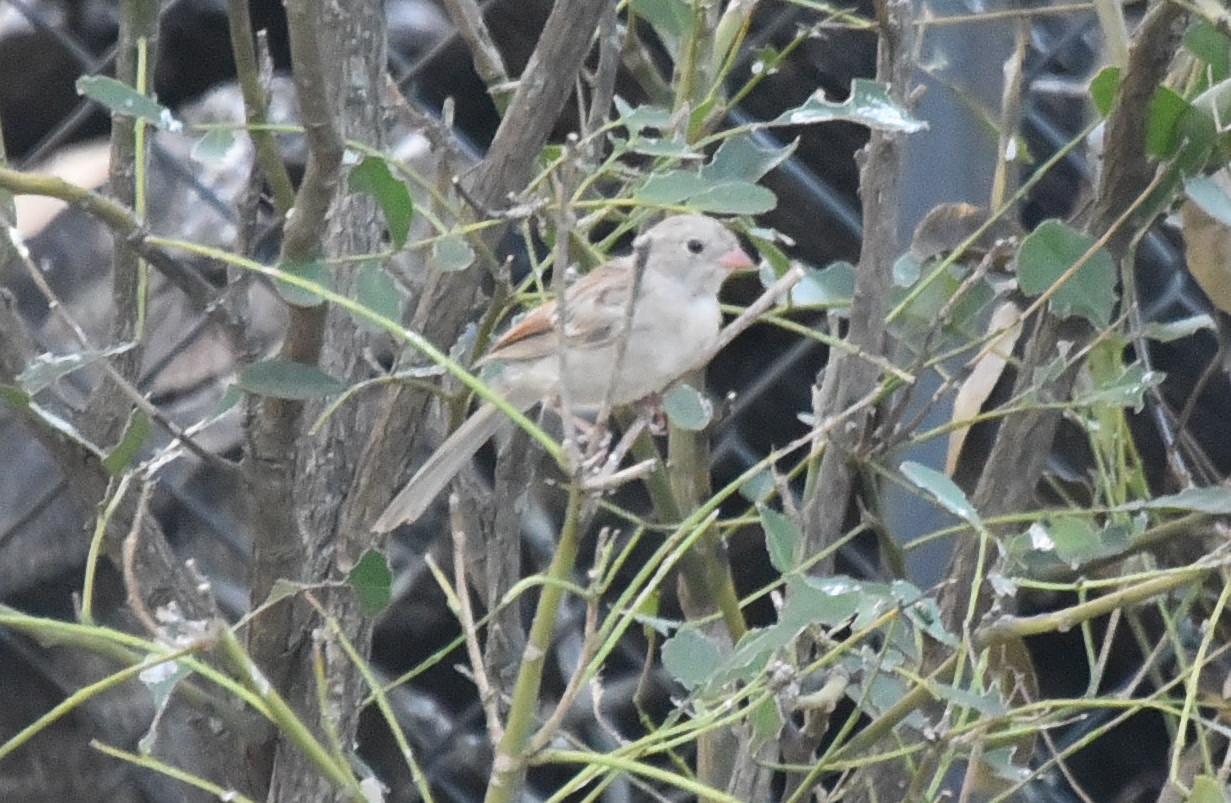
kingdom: Animalia
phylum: Chordata
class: Aves
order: Passeriformes
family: Passerellidae
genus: Spizella
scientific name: Spizella pusilla
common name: Field sparrow
